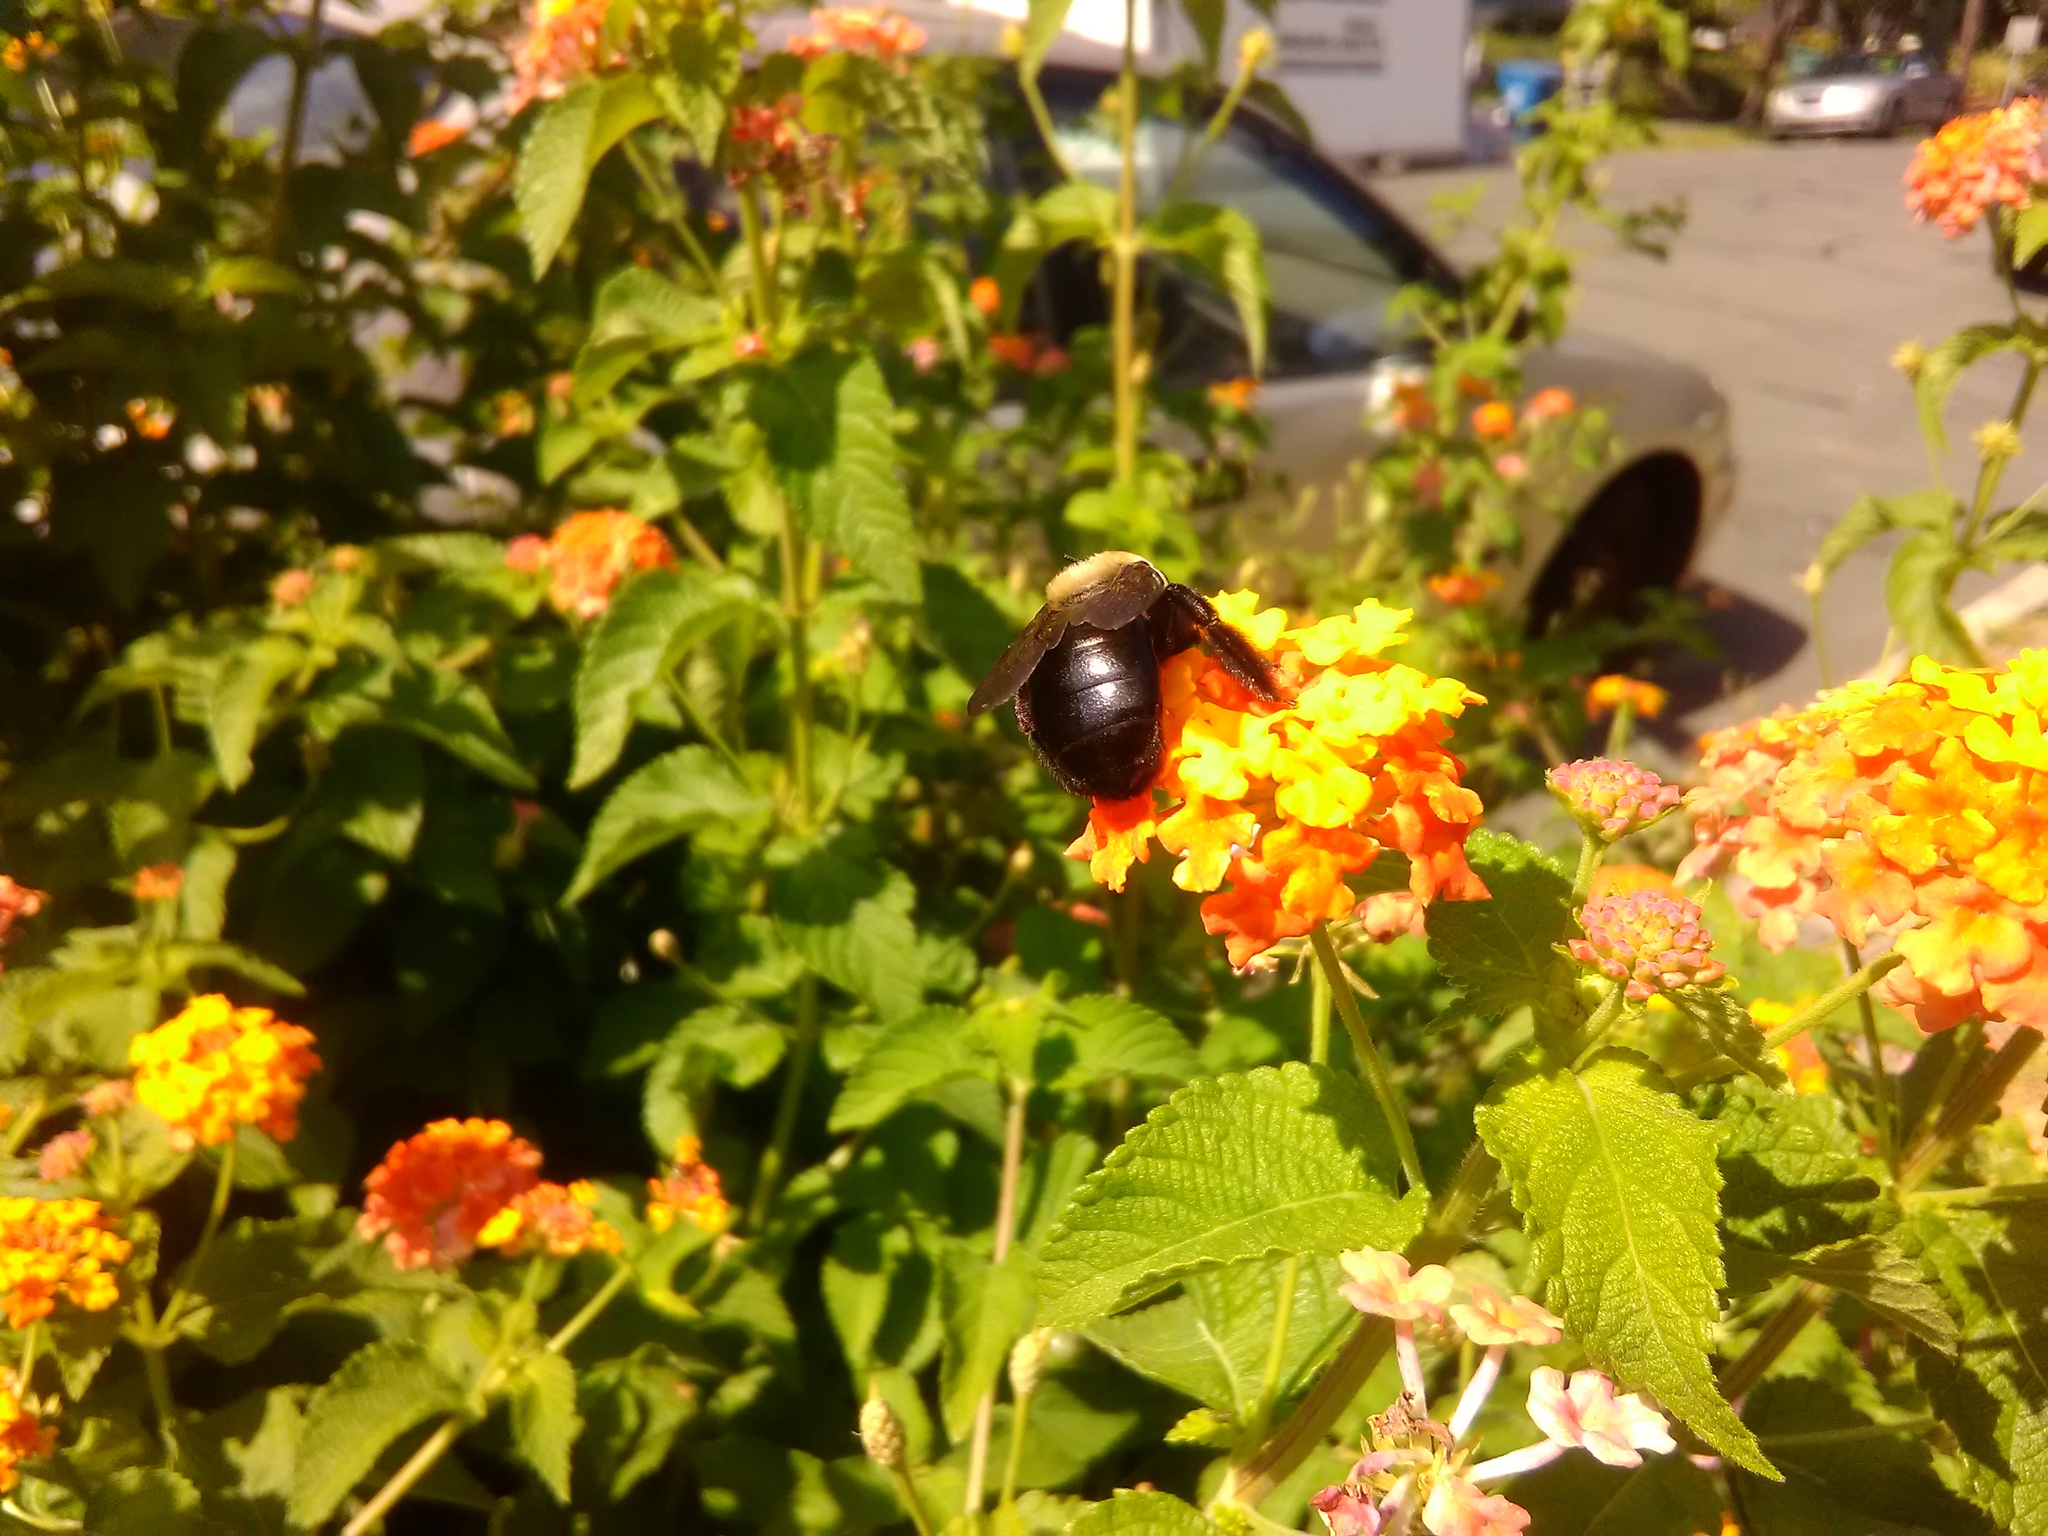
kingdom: Animalia
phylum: Arthropoda
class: Insecta
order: Hymenoptera
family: Apidae
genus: Xylocopa
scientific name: Xylocopa virginica
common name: Carpenter bee
